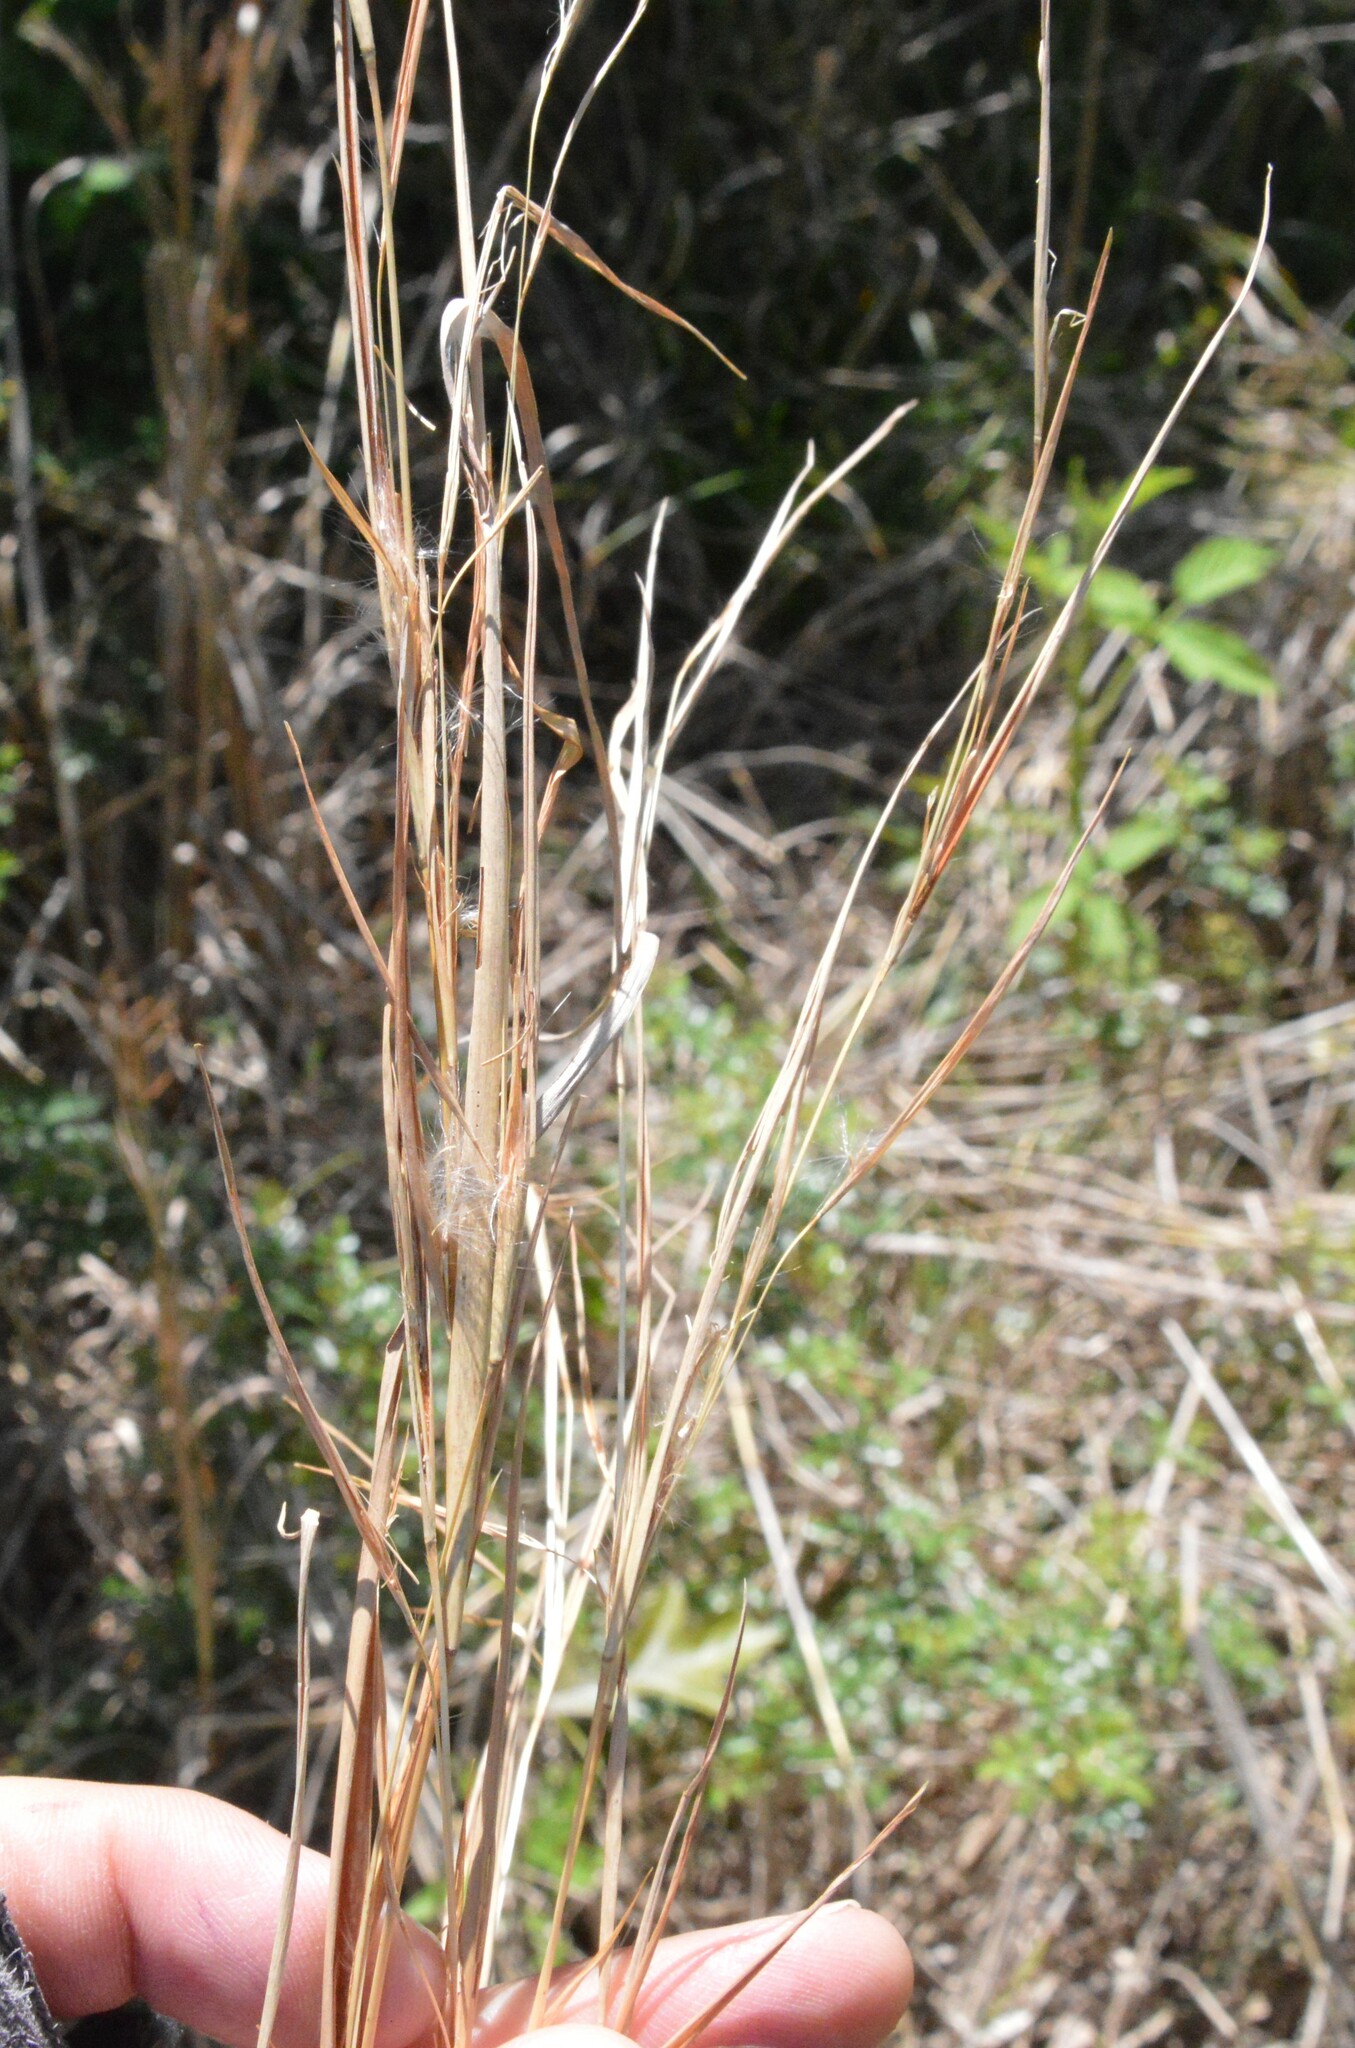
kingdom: Plantae
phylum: Tracheophyta
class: Liliopsida
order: Poales
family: Poaceae
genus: Andropogon
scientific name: Andropogon virginicus
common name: Broomsedge bluestem
